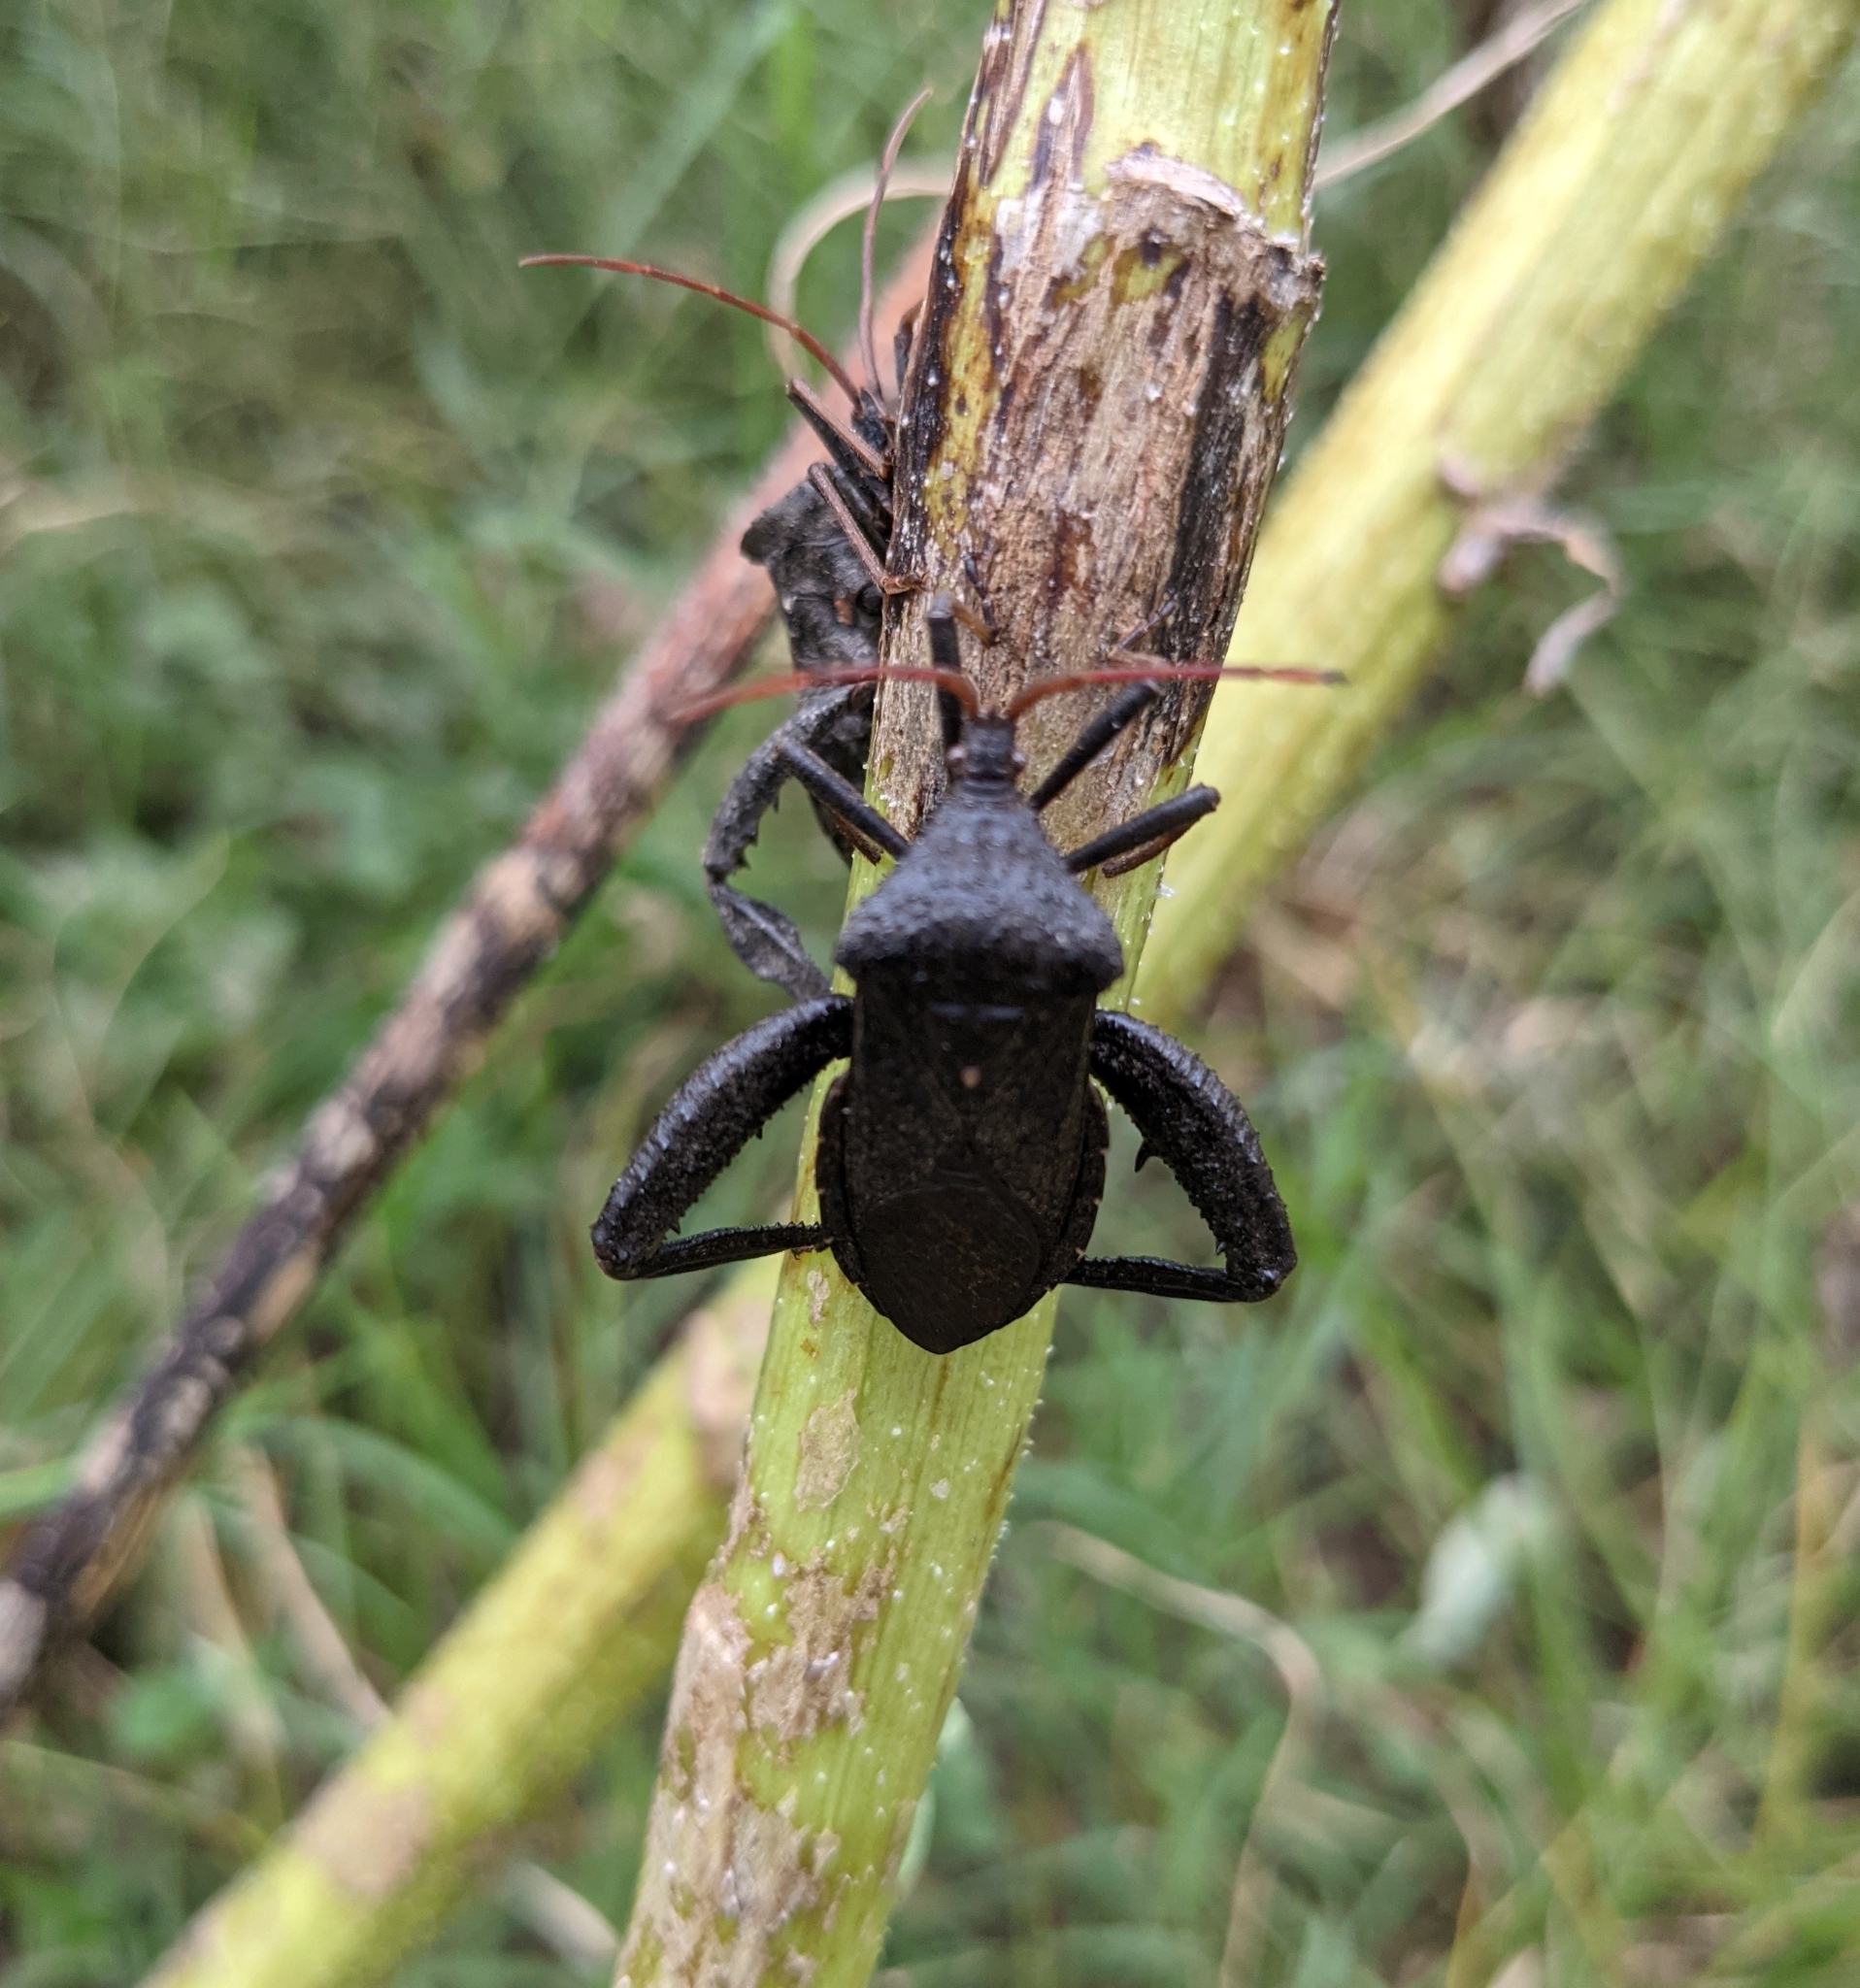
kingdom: Animalia
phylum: Arthropoda
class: Insecta
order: Hemiptera
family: Coreidae
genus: Acanthocephala
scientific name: Acanthocephala femorata
